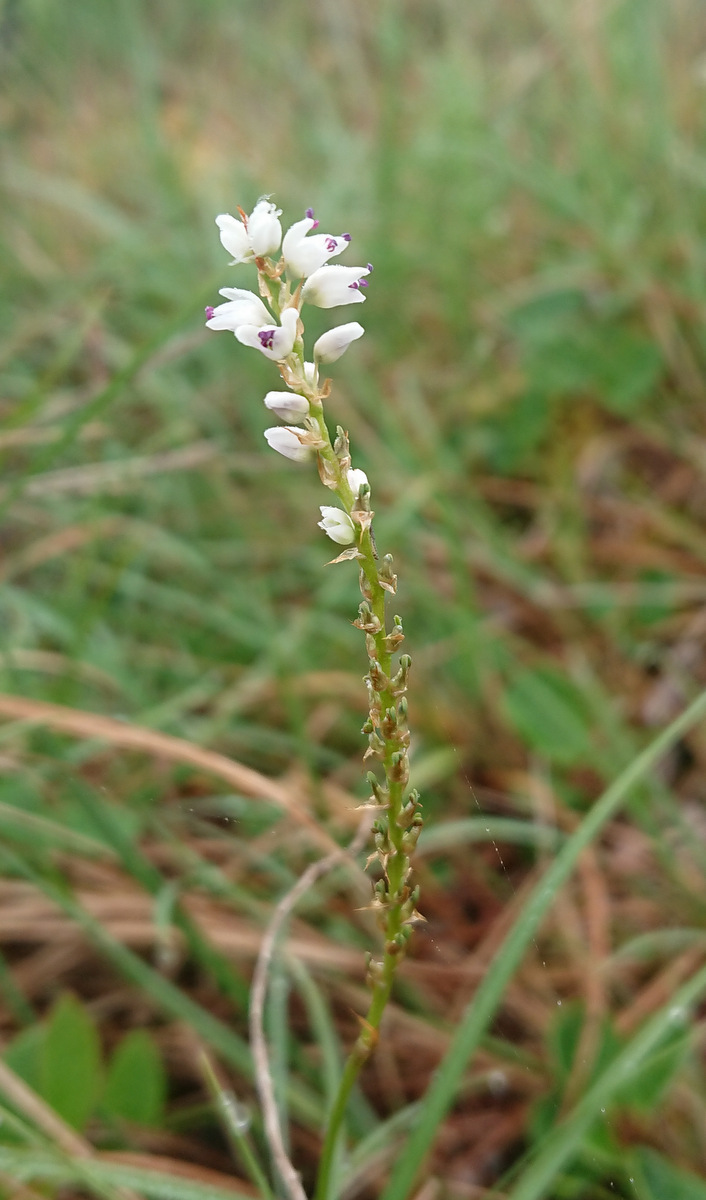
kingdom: Plantae
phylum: Tracheophyta
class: Magnoliopsida
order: Caryophyllales
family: Polygonaceae
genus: Bistorta
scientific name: Bistorta vivipara
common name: Alpine bistort
